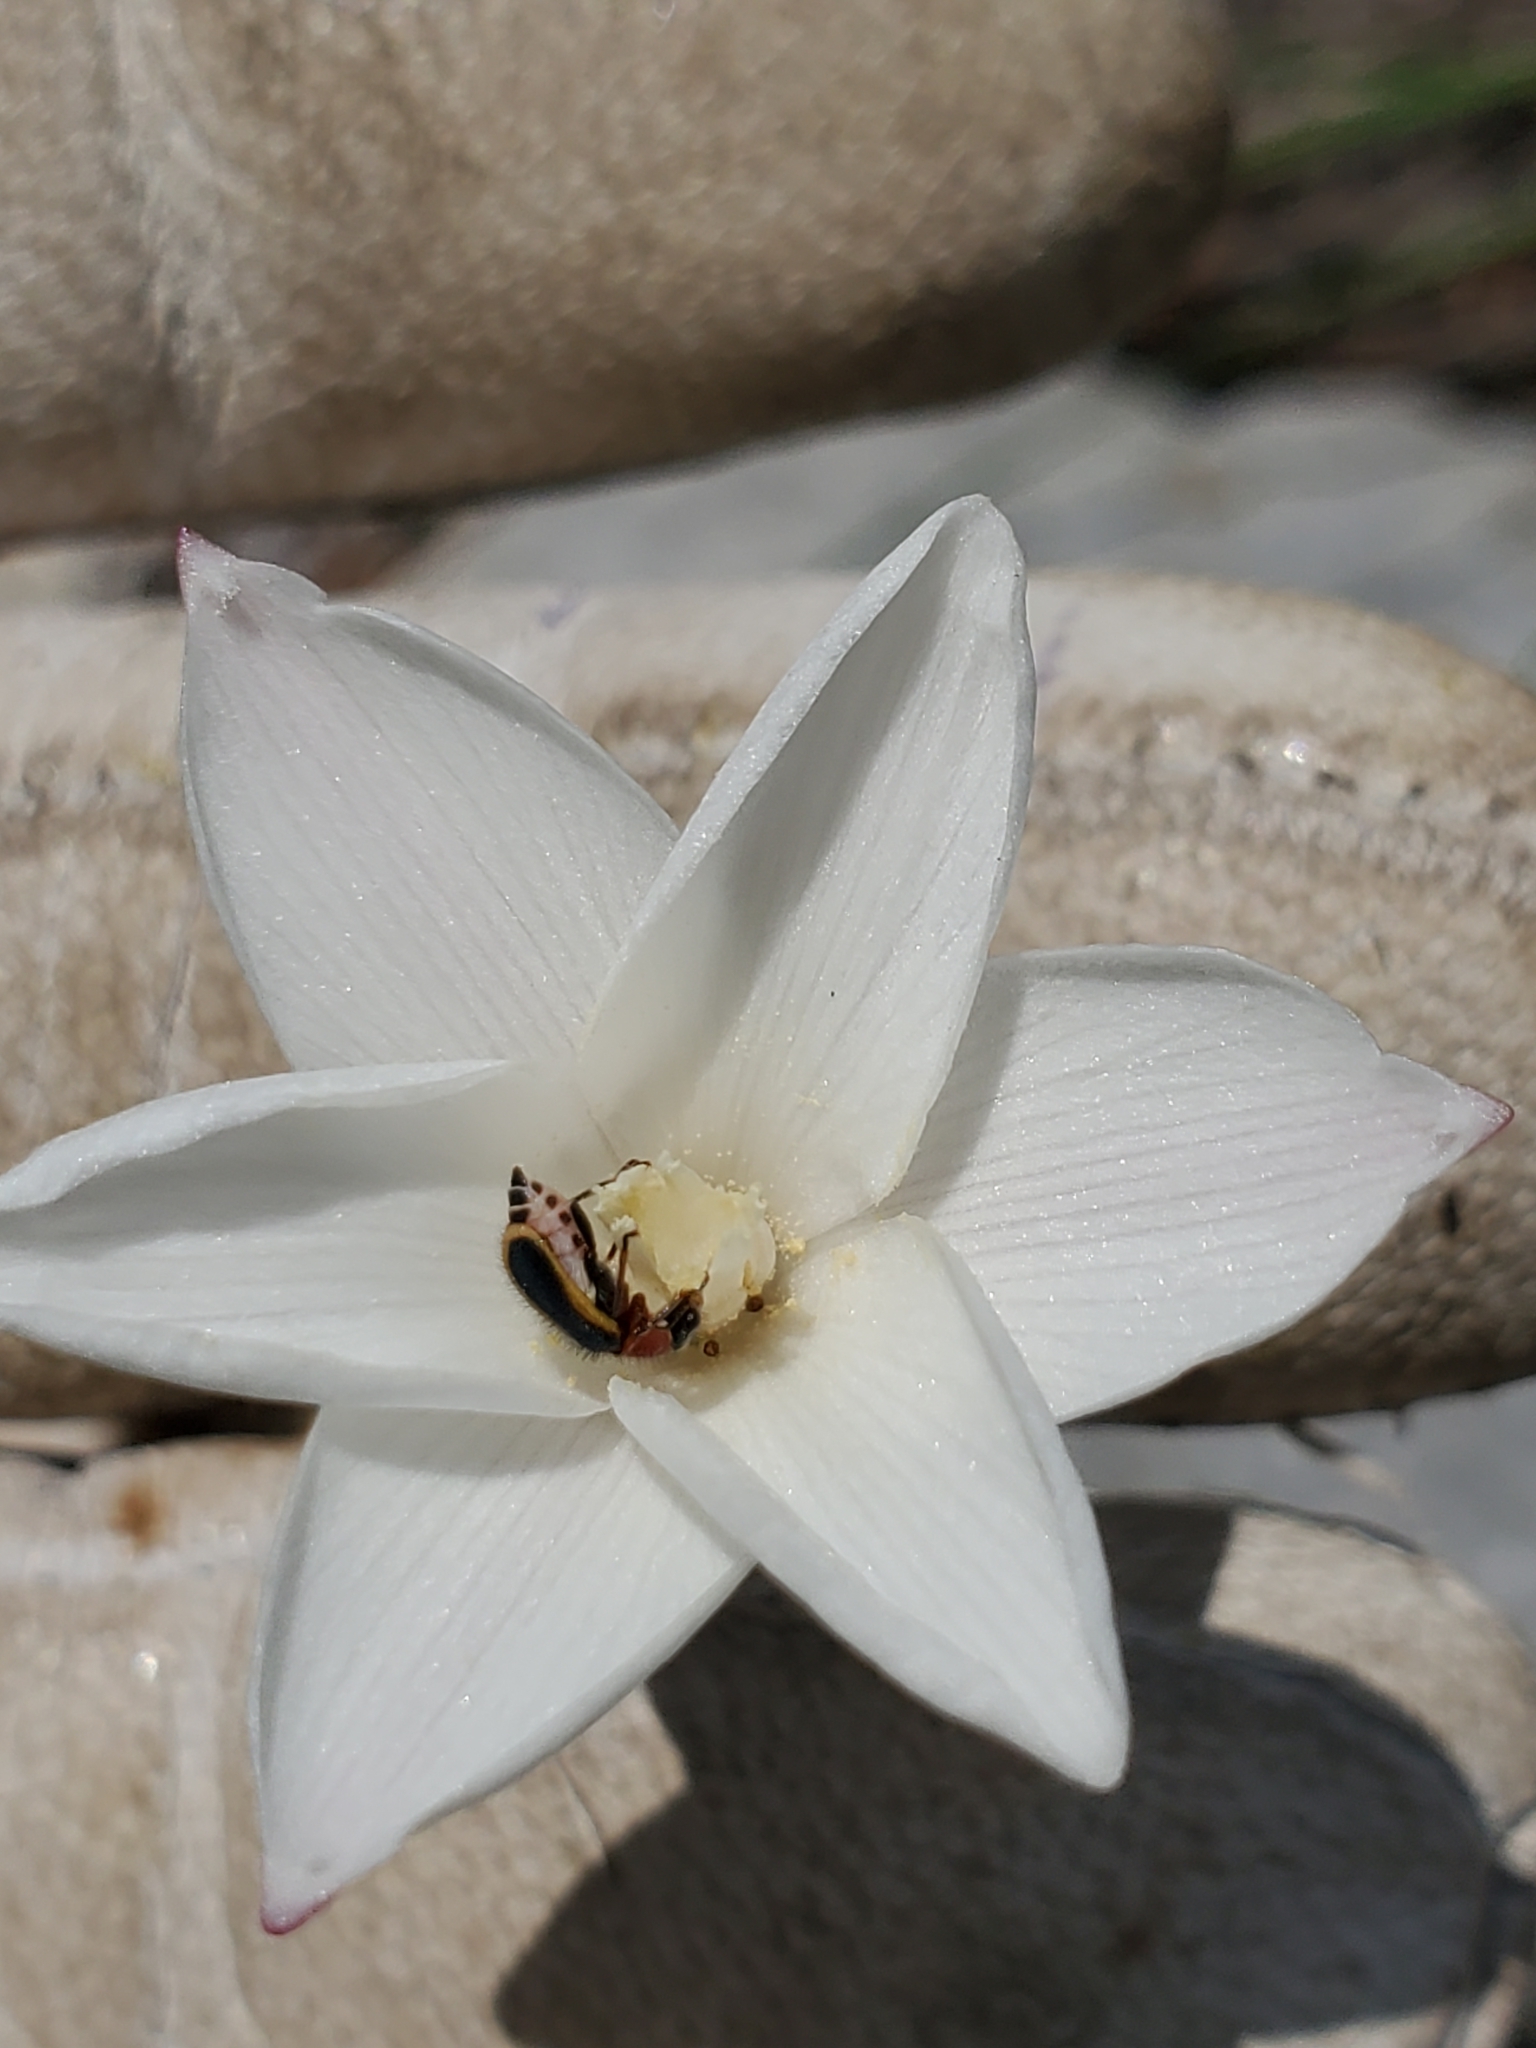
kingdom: Plantae
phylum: Tracheophyta
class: Liliopsida
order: Asparagales
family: Amaryllidaceae
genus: Zephyranthes
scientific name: Zephyranthes chlorosolen
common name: Evening rain-lily
